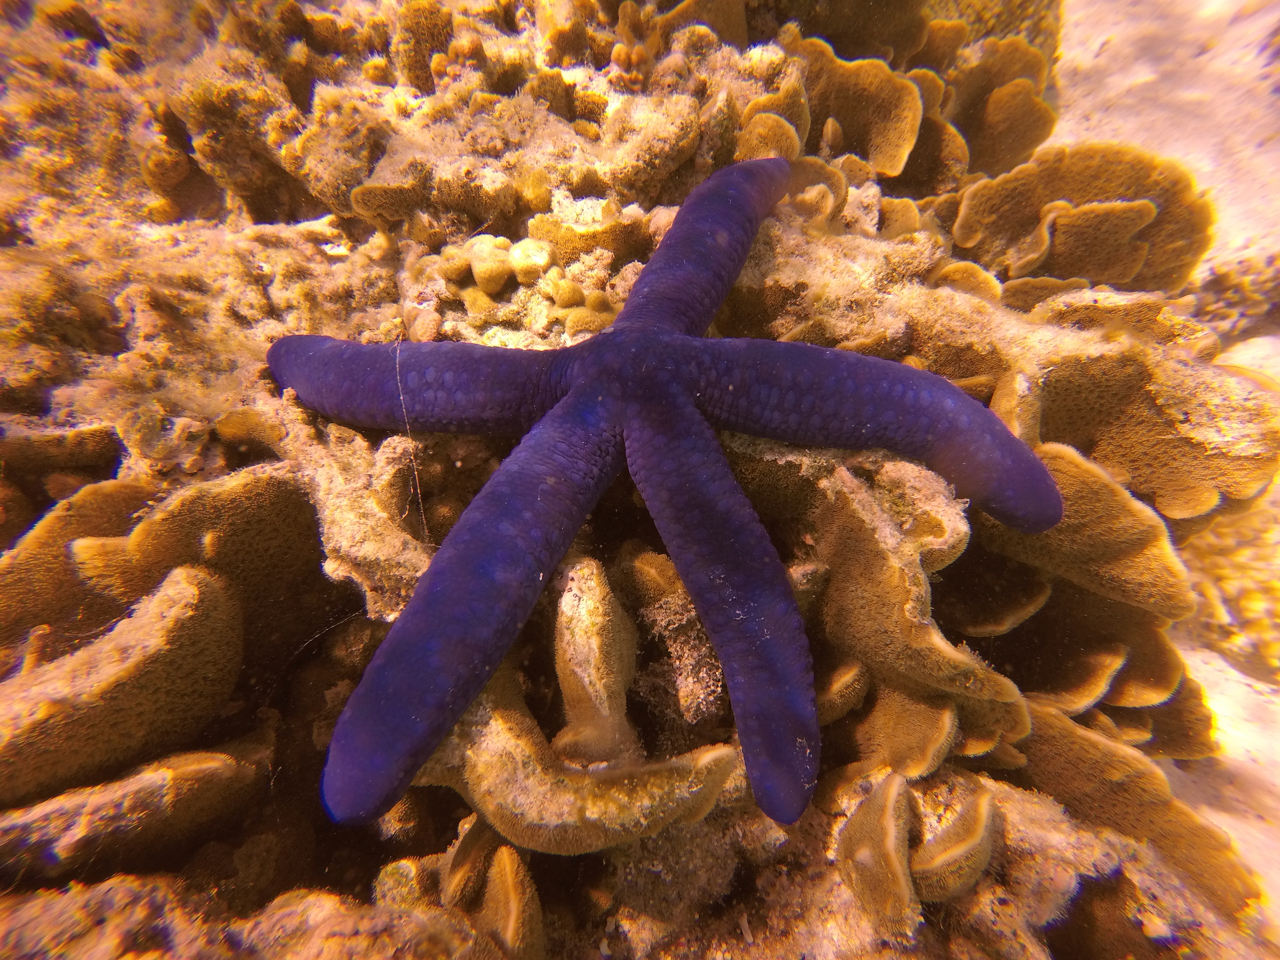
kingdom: Animalia
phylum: Echinodermata
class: Asteroidea
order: Valvatida
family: Ophidiasteridae
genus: Linckia
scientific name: Linckia laevigata
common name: Azure sea star
